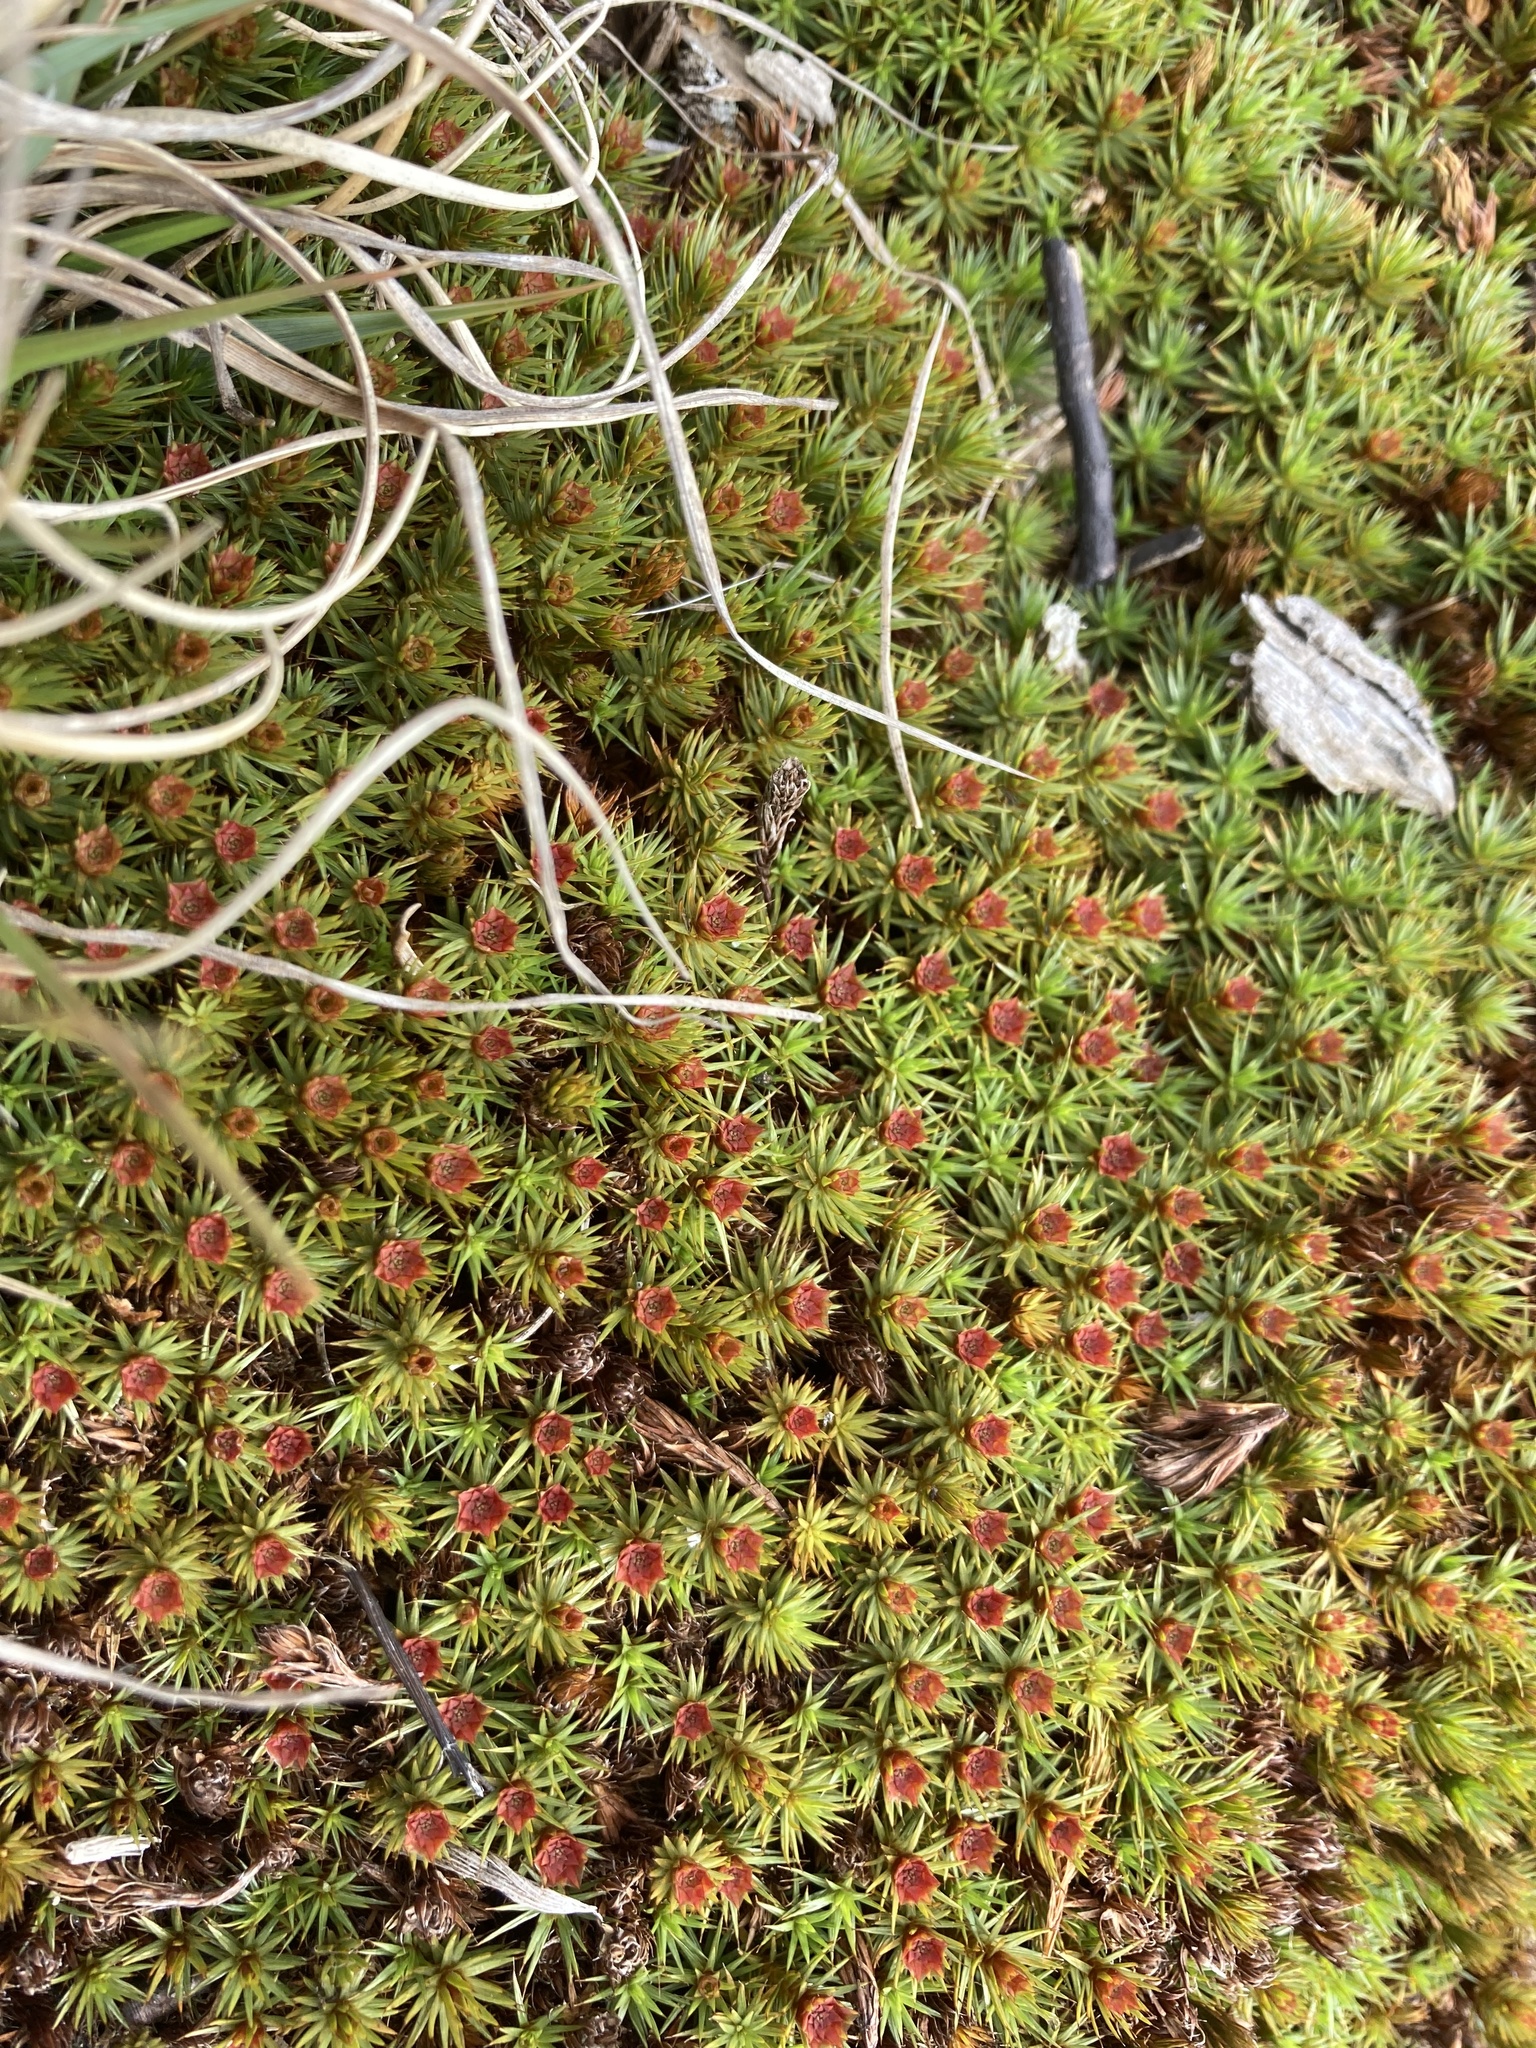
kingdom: Plantae
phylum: Bryophyta
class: Polytrichopsida
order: Polytrichales
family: Polytrichaceae
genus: Polytrichum
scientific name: Polytrichum juniperinum
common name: Juniper haircap moss
